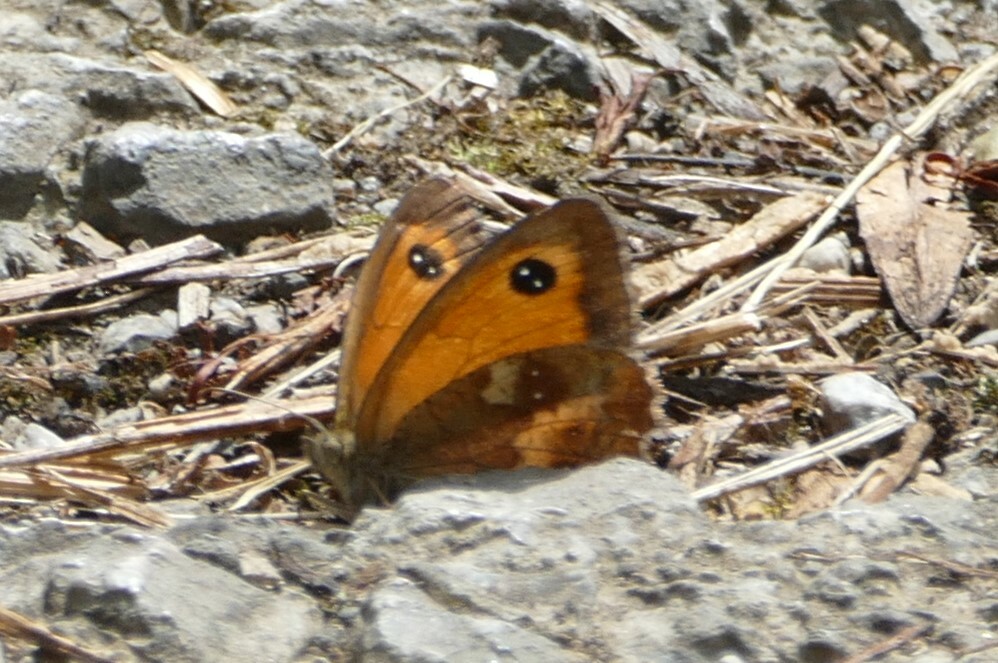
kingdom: Animalia
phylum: Arthropoda
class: Insecta
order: Lepidoptera
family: Nymphalidae
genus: Pyronia
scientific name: Pyronia tithonus
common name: Gatekeeper
